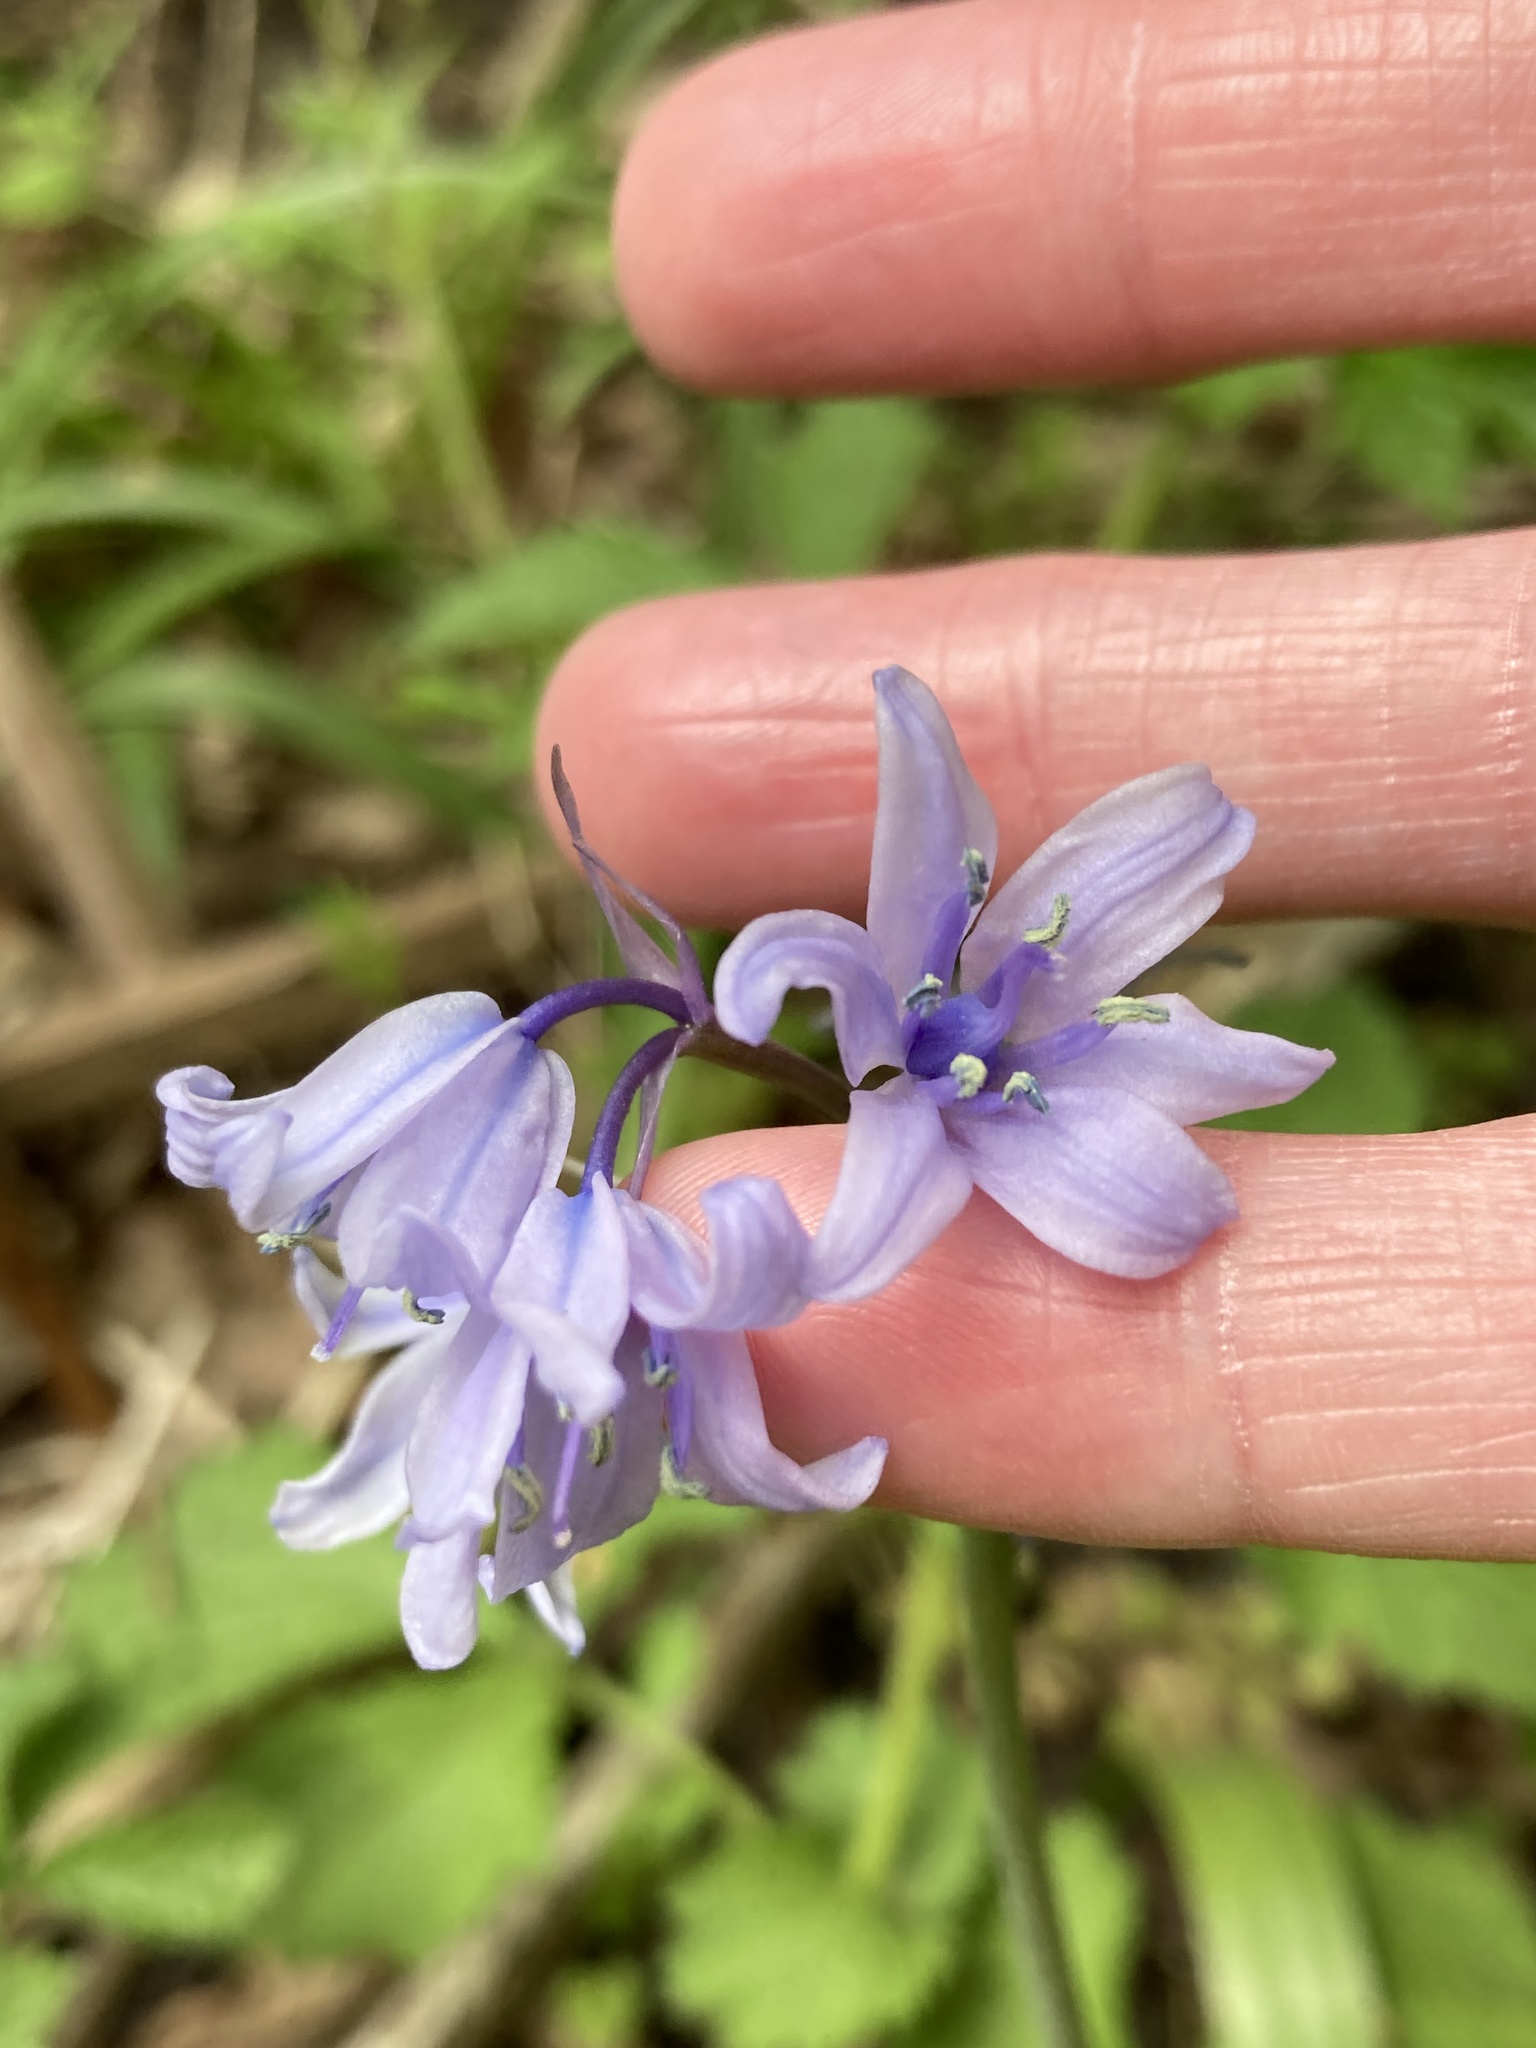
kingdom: Plantae
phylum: Tracheophyta
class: Liliopsida
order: Asparagales
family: Asparagaceae
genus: Hyacinthoides
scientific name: Hyacinthoides hispanica
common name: Spanish bluebell
